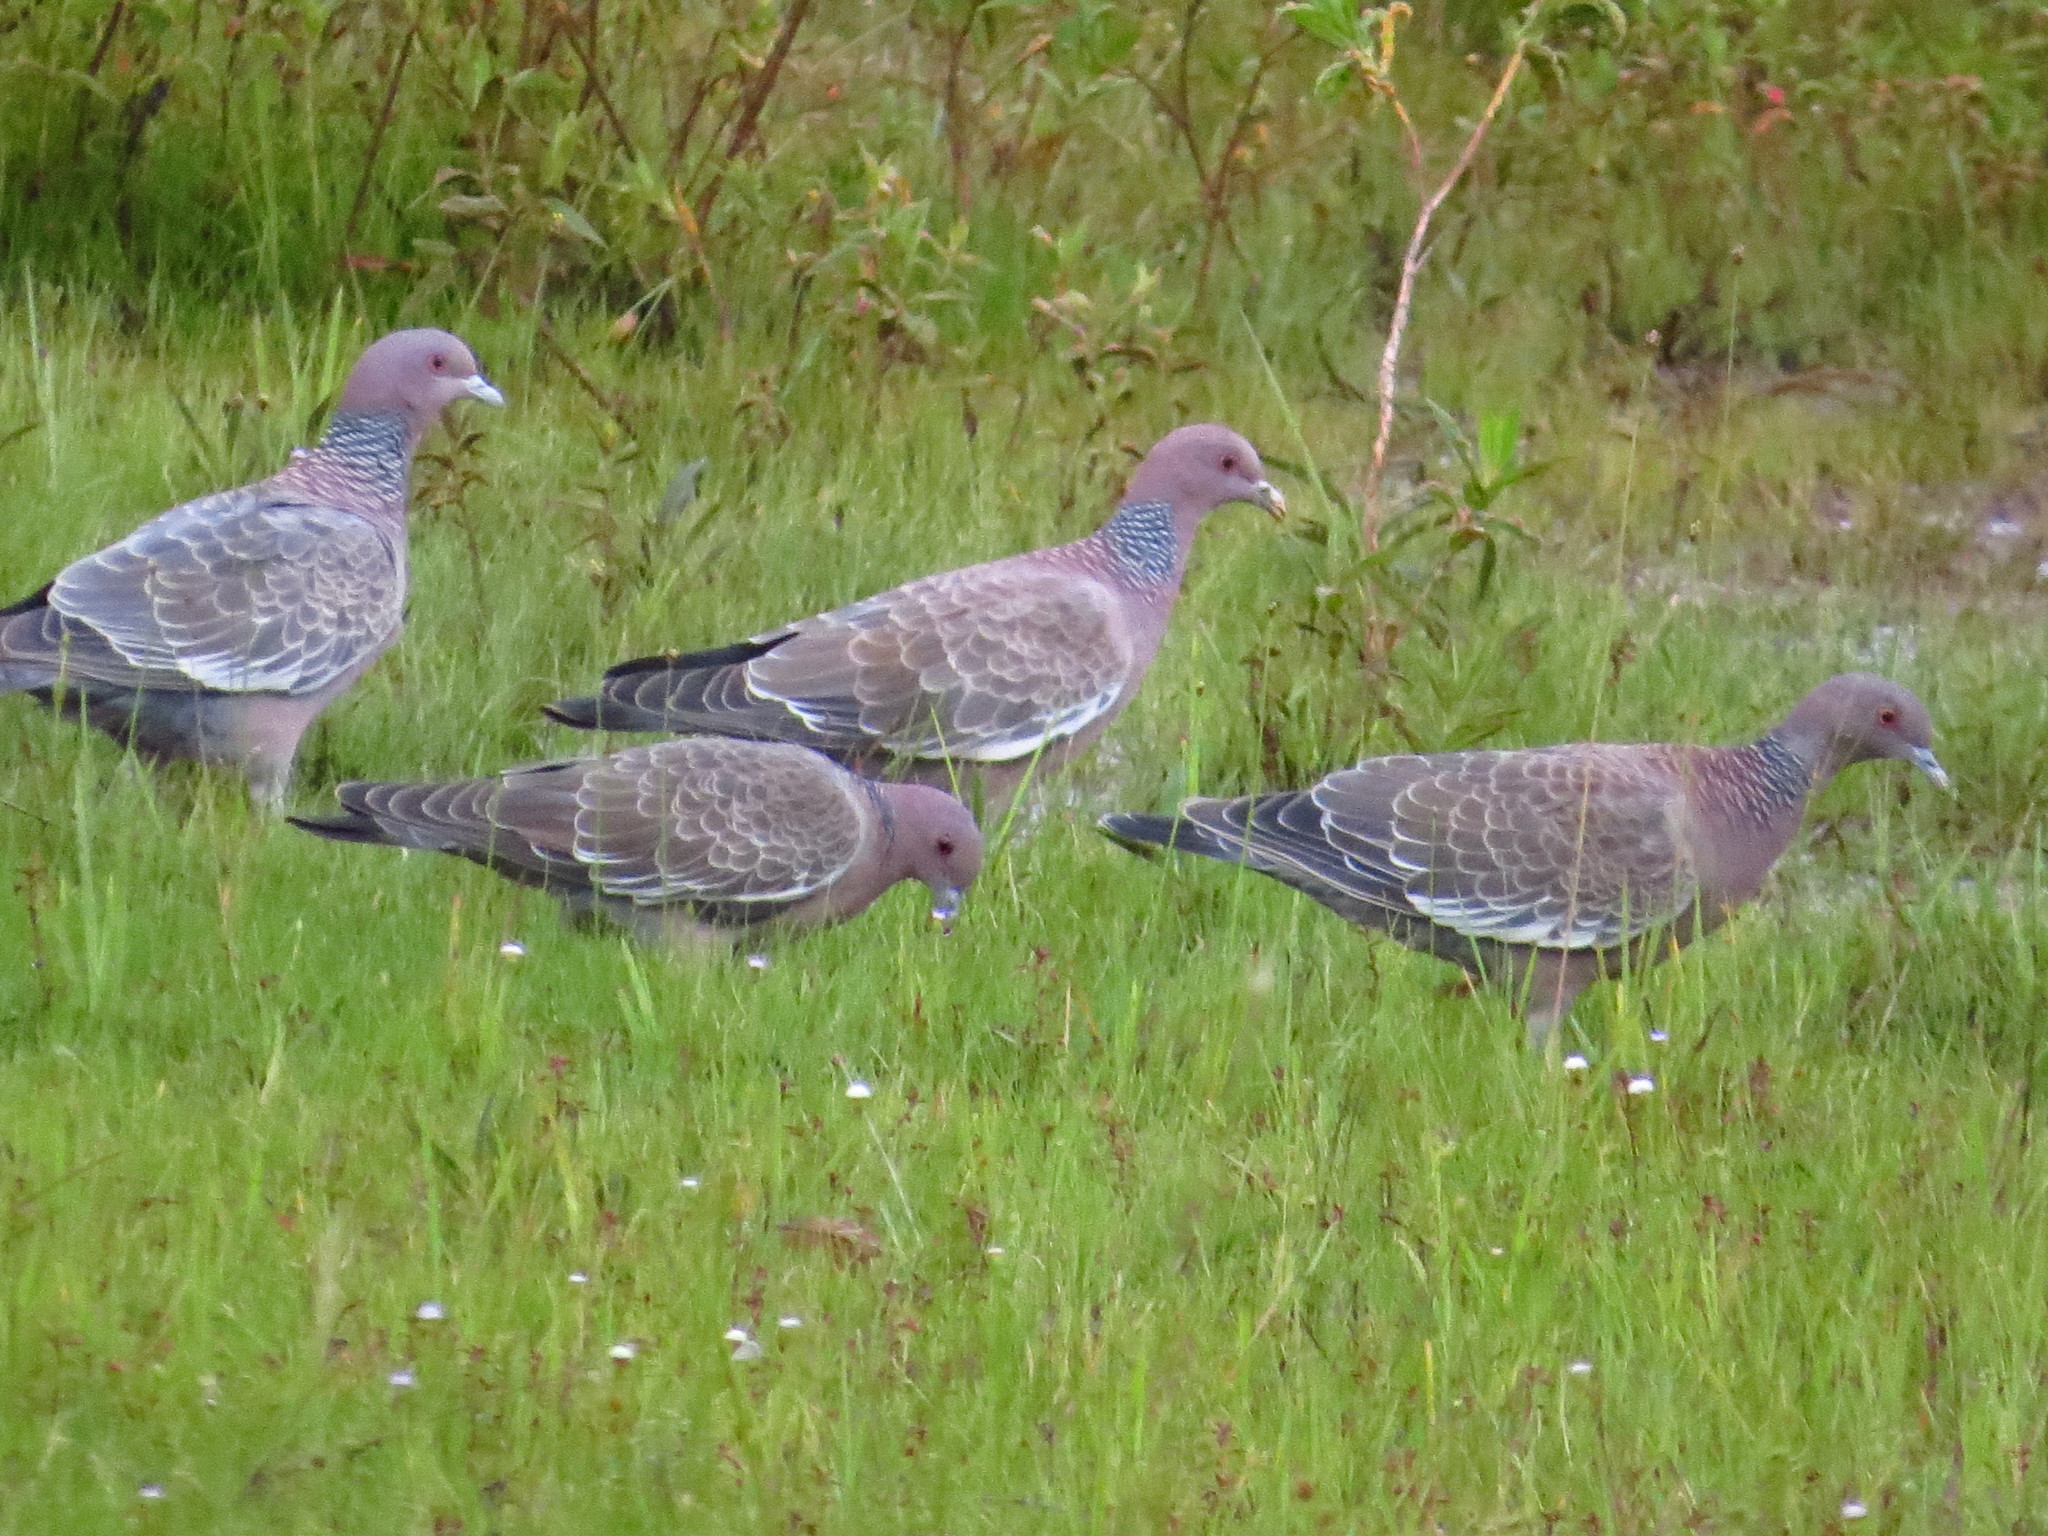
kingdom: Animalia
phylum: Chordata
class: Aves
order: Columbiformes
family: Columbidae
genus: Patagioenas
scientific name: Patagioenas picazuro
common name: Picazuro pigeon
